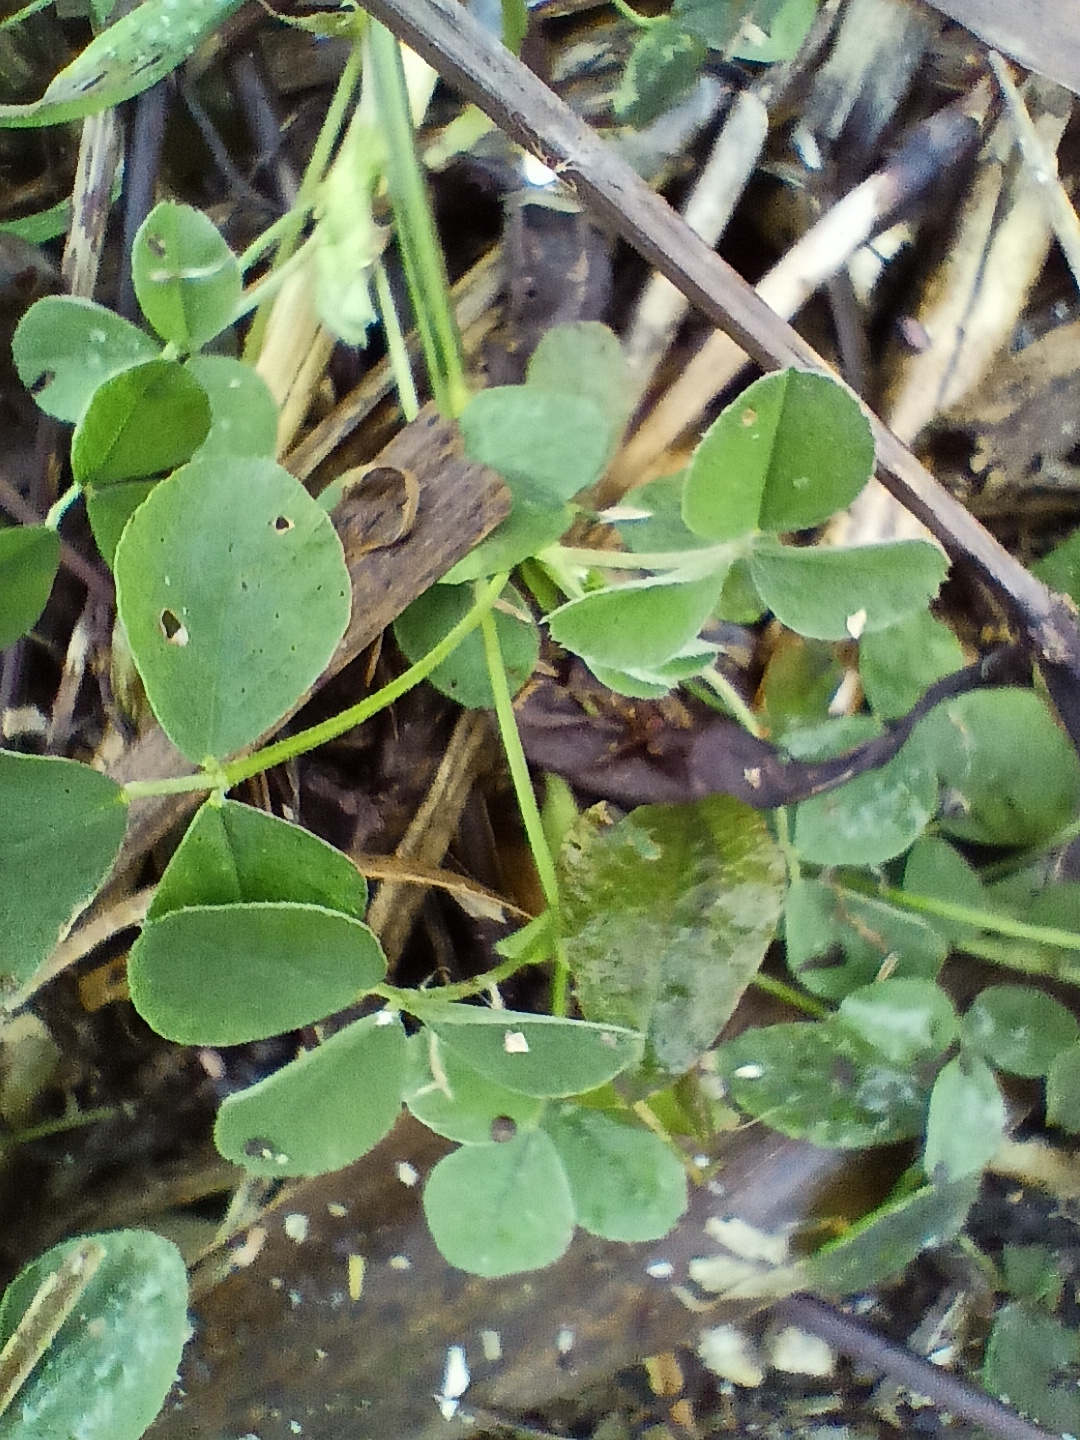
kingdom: Plantae
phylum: Tracheophyta
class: Magnoliopsida
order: Fabales
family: Fabaceae
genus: Medicago
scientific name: Medicago lupulina
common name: Black medick
